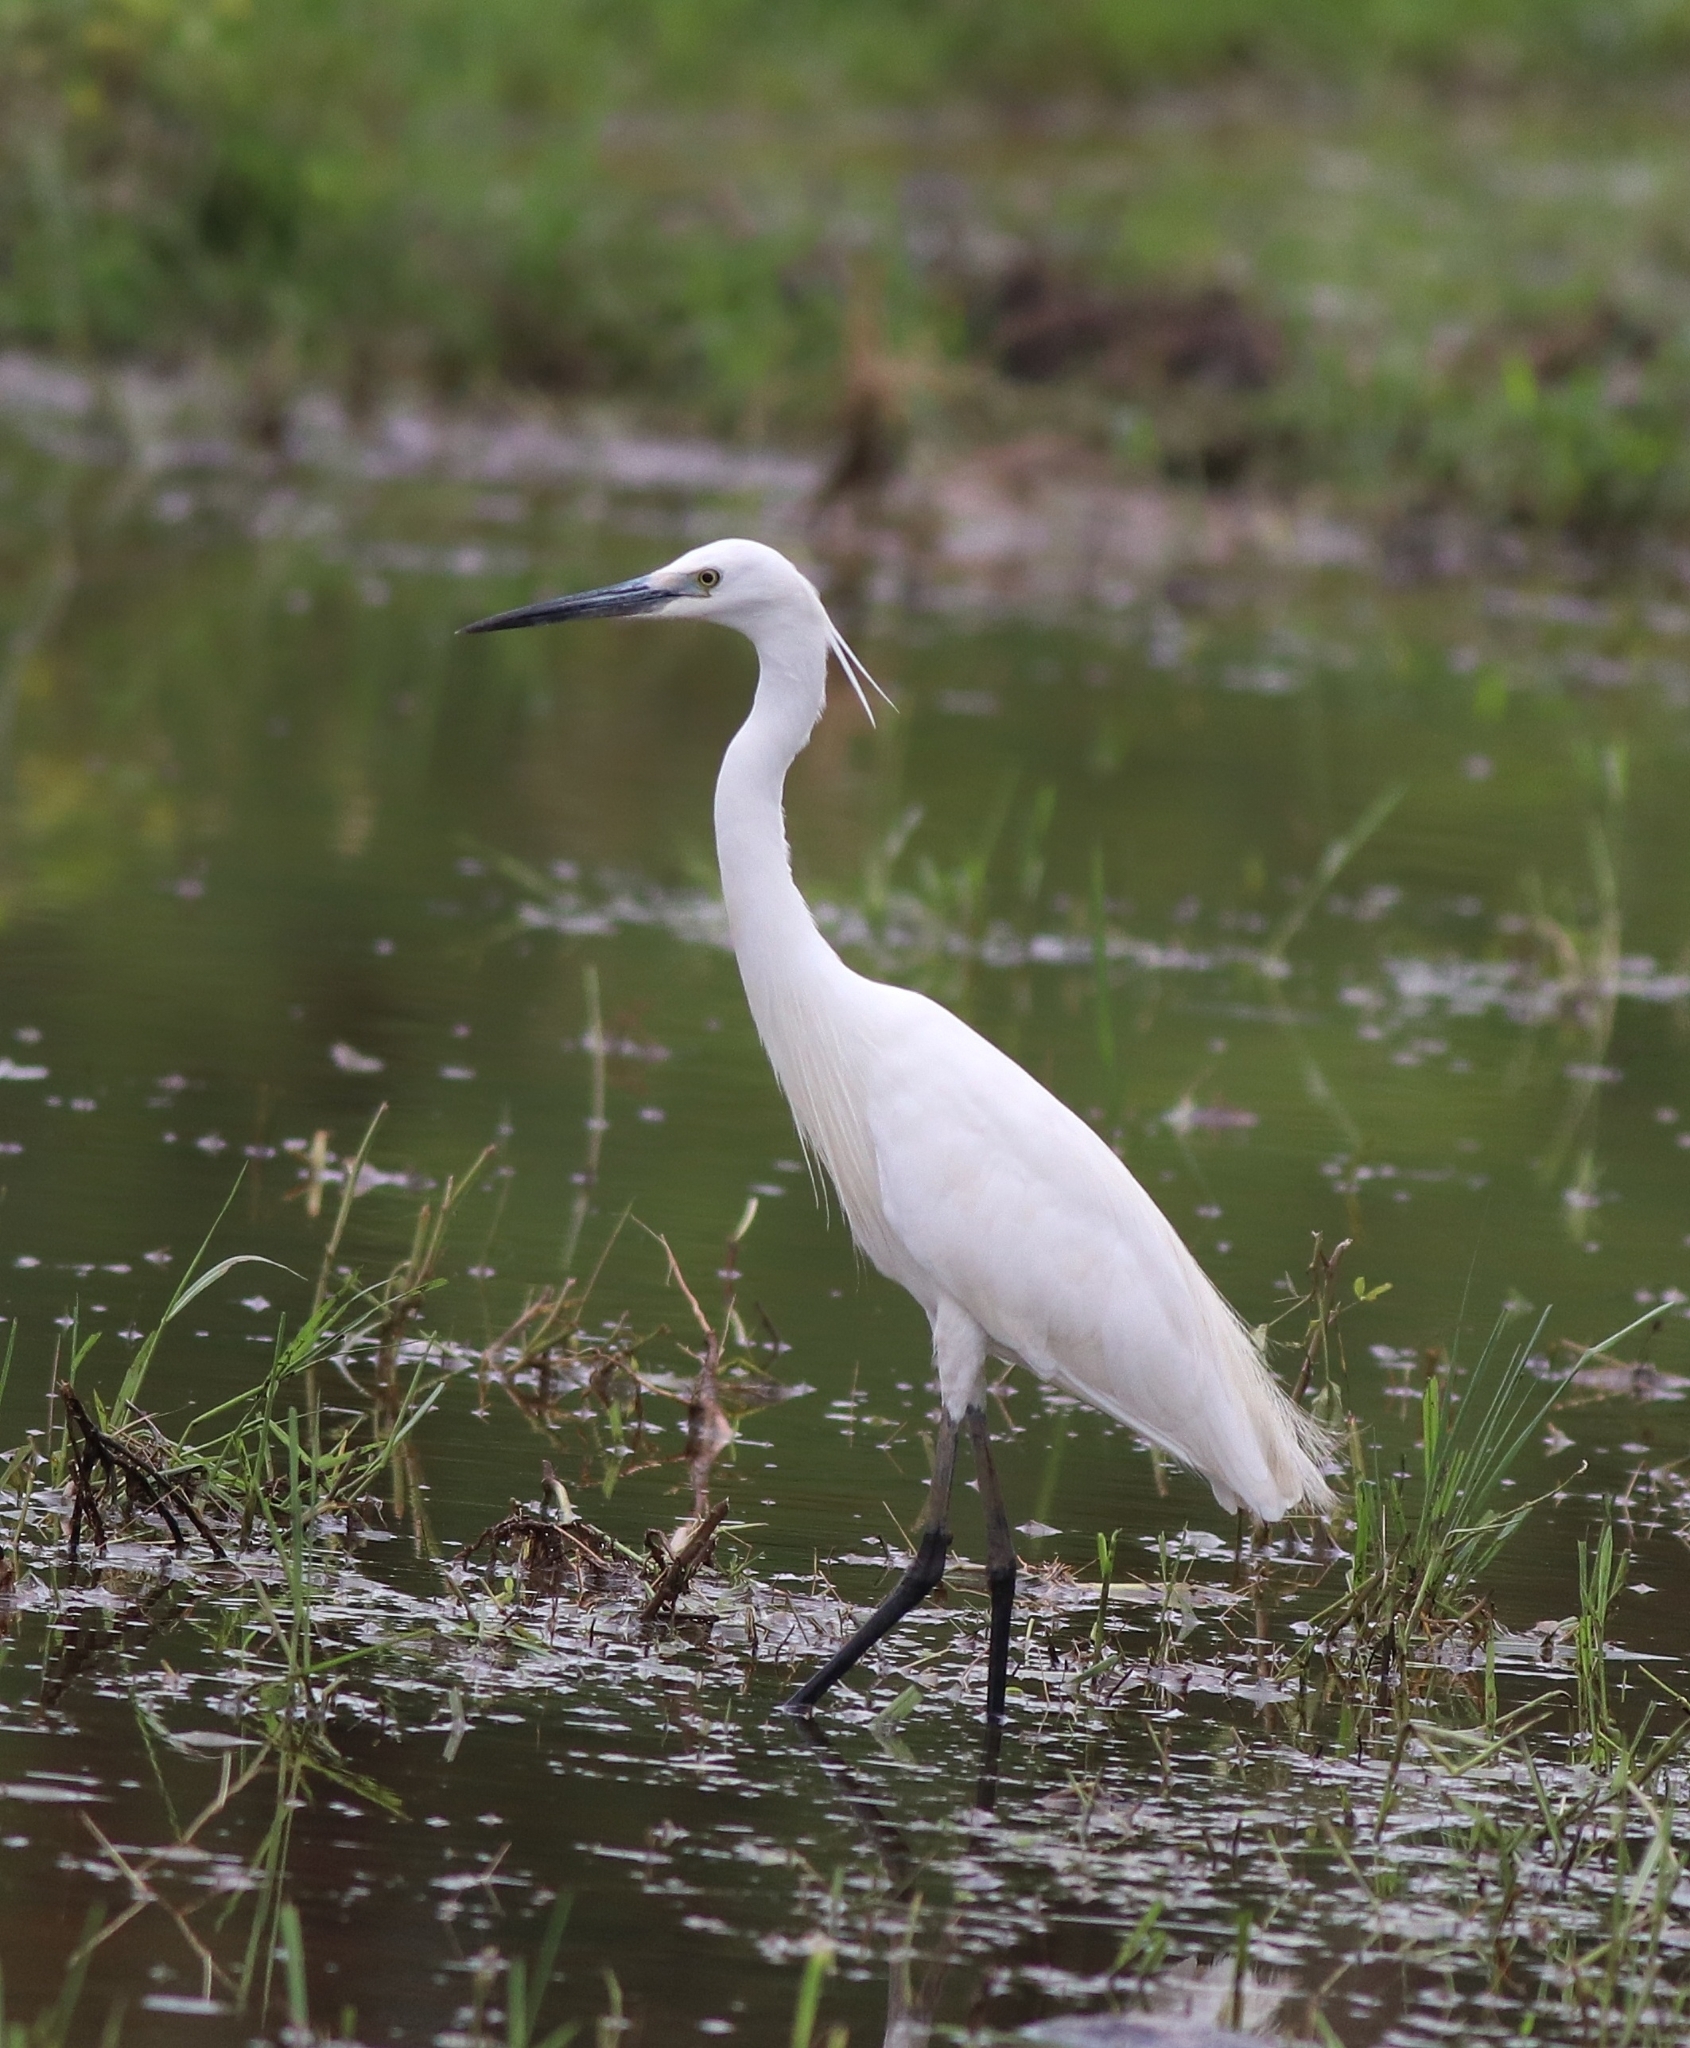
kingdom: Animalia
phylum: Chordata
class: Aves
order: Pelecaniformes
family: Ardeidae
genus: Egretta
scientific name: Egretta garzetta
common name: Little egret
